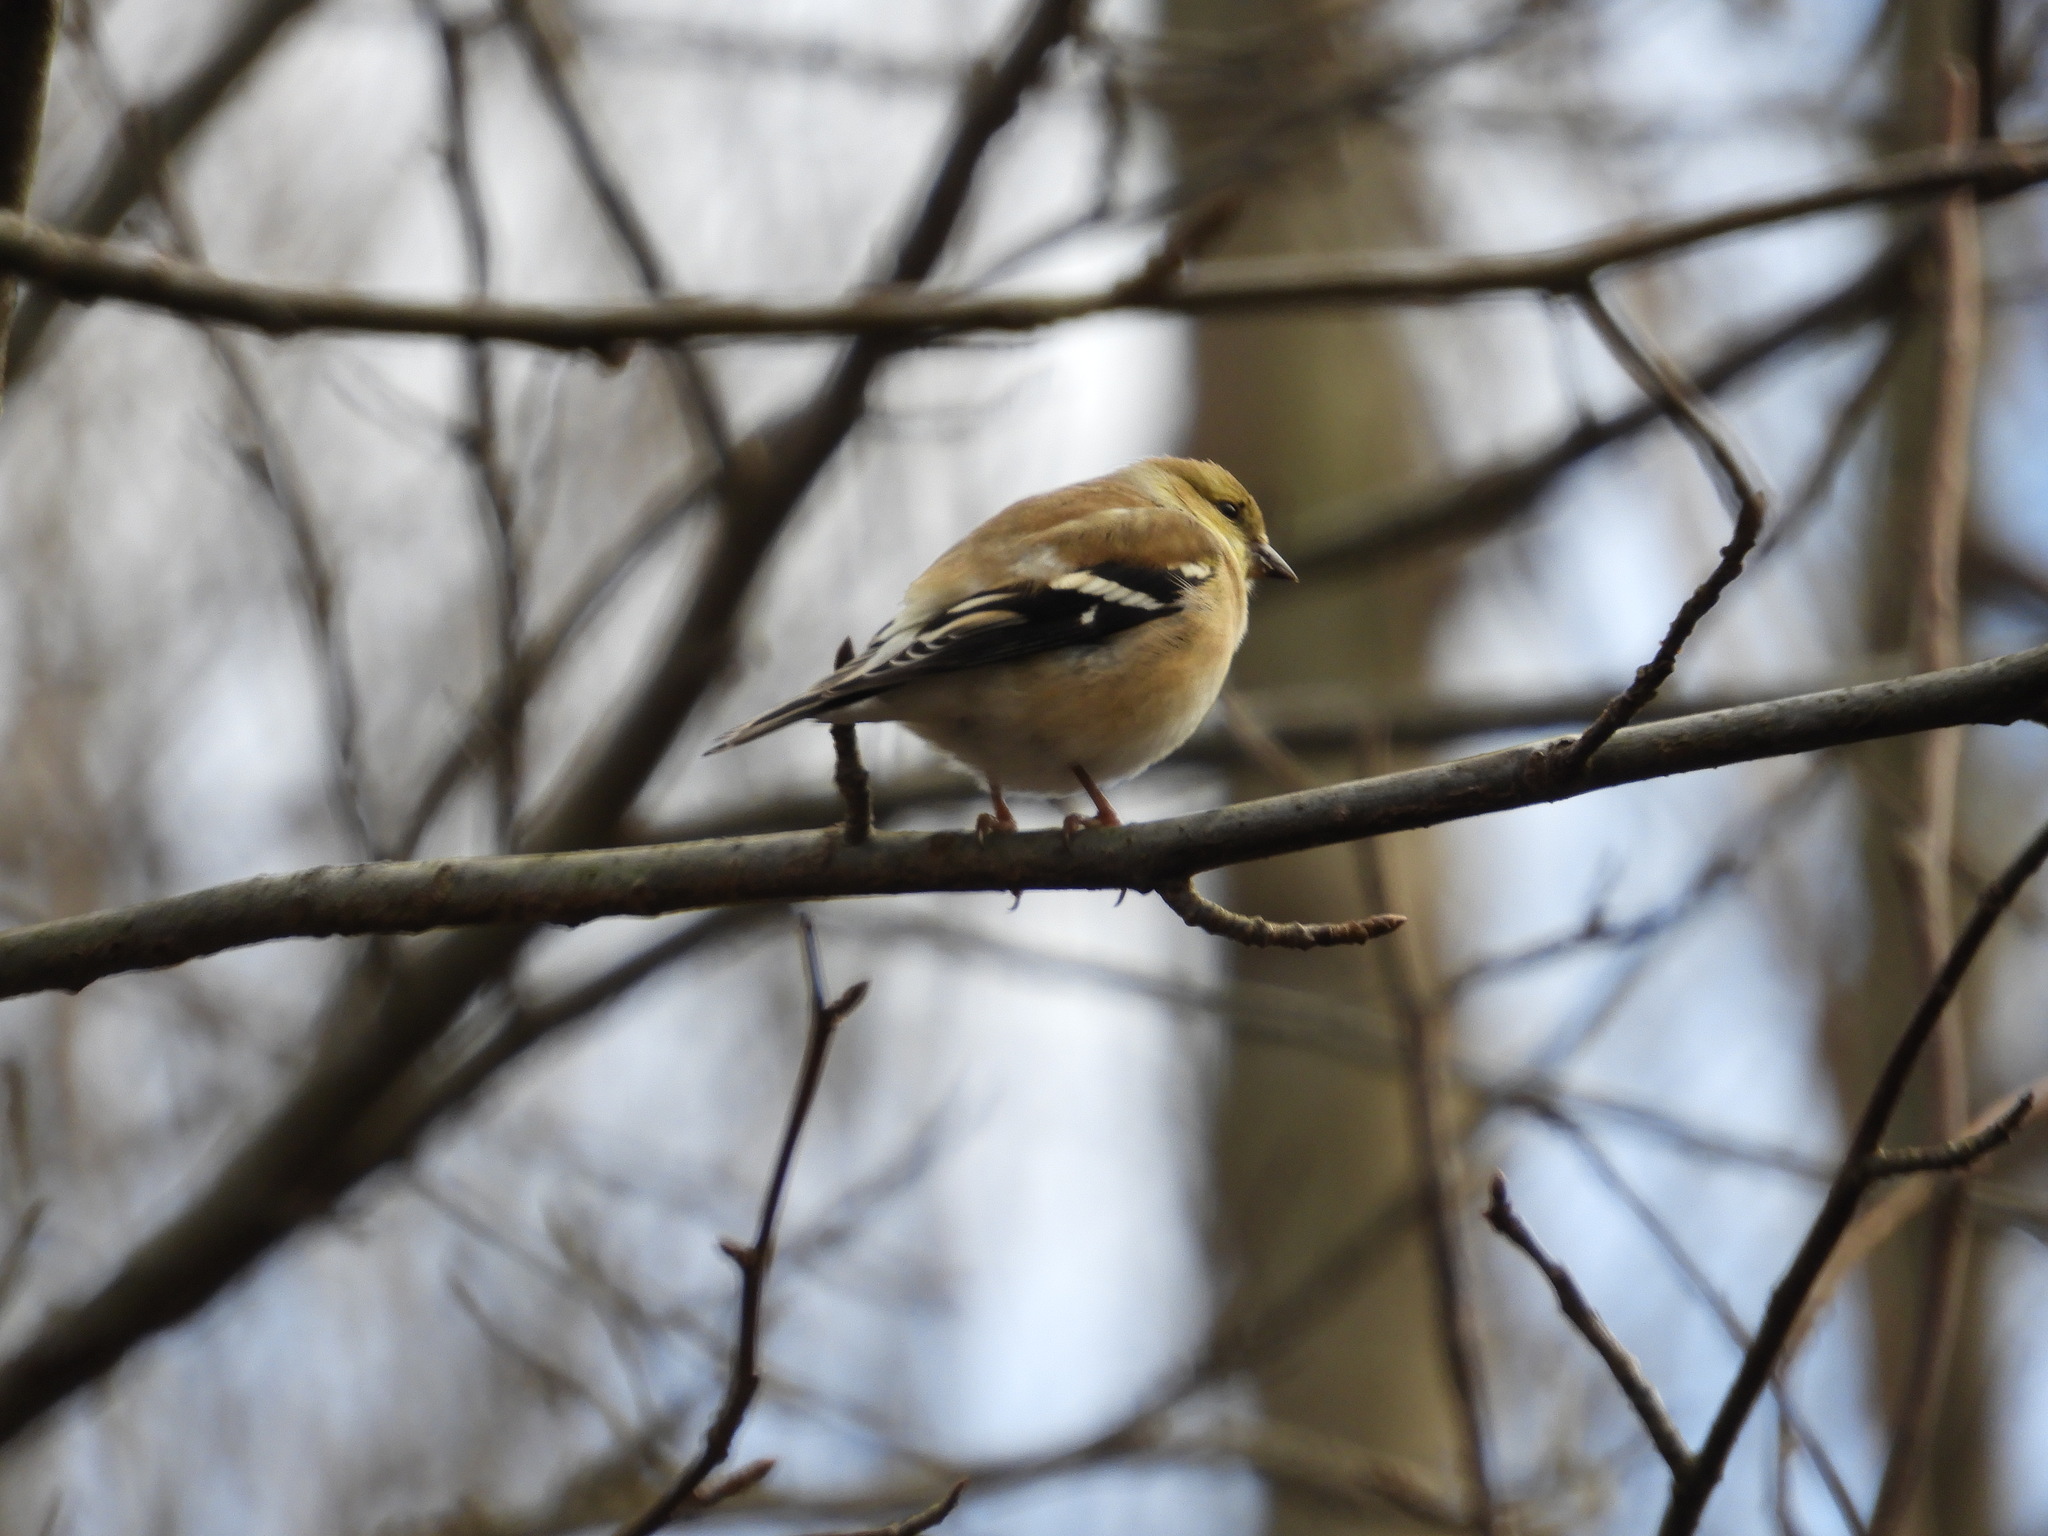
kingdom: Animalia
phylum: Chordata
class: Aves
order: Passeriformes
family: Fringillidae
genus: Spinus
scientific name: Spinus tristis
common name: American goldfinch
